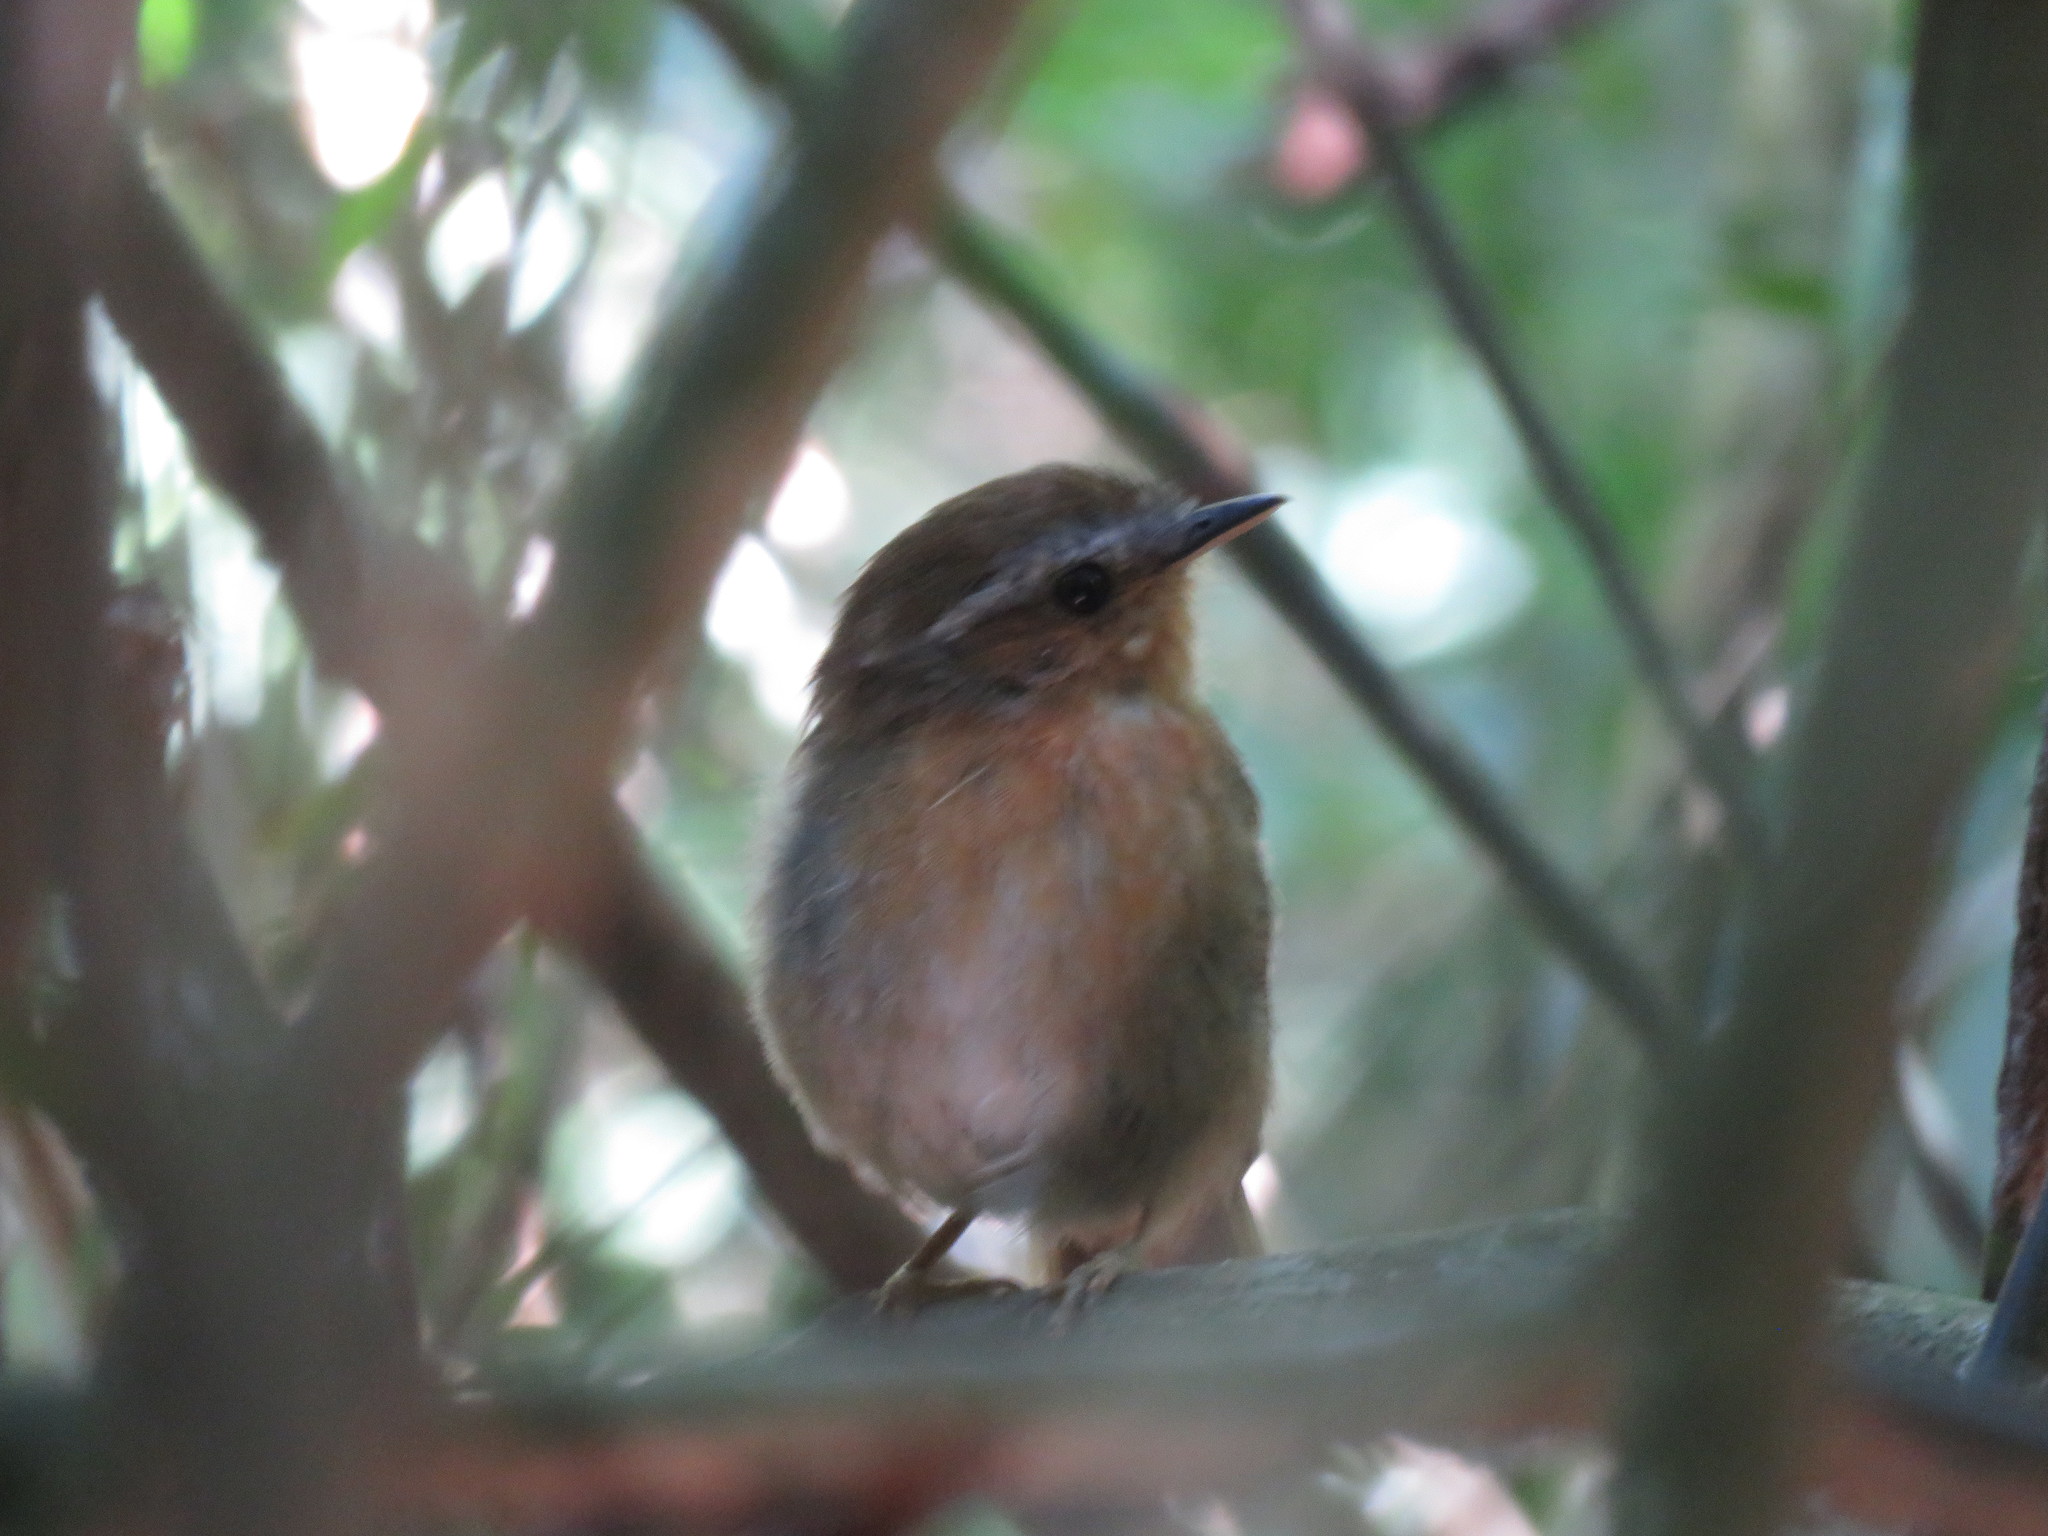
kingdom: Animalia
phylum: Chordata
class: Aves
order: Passeriformes
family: Conopophagidae
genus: Conopophaga
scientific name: Conopophaga lineata
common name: Rufous gnateater
